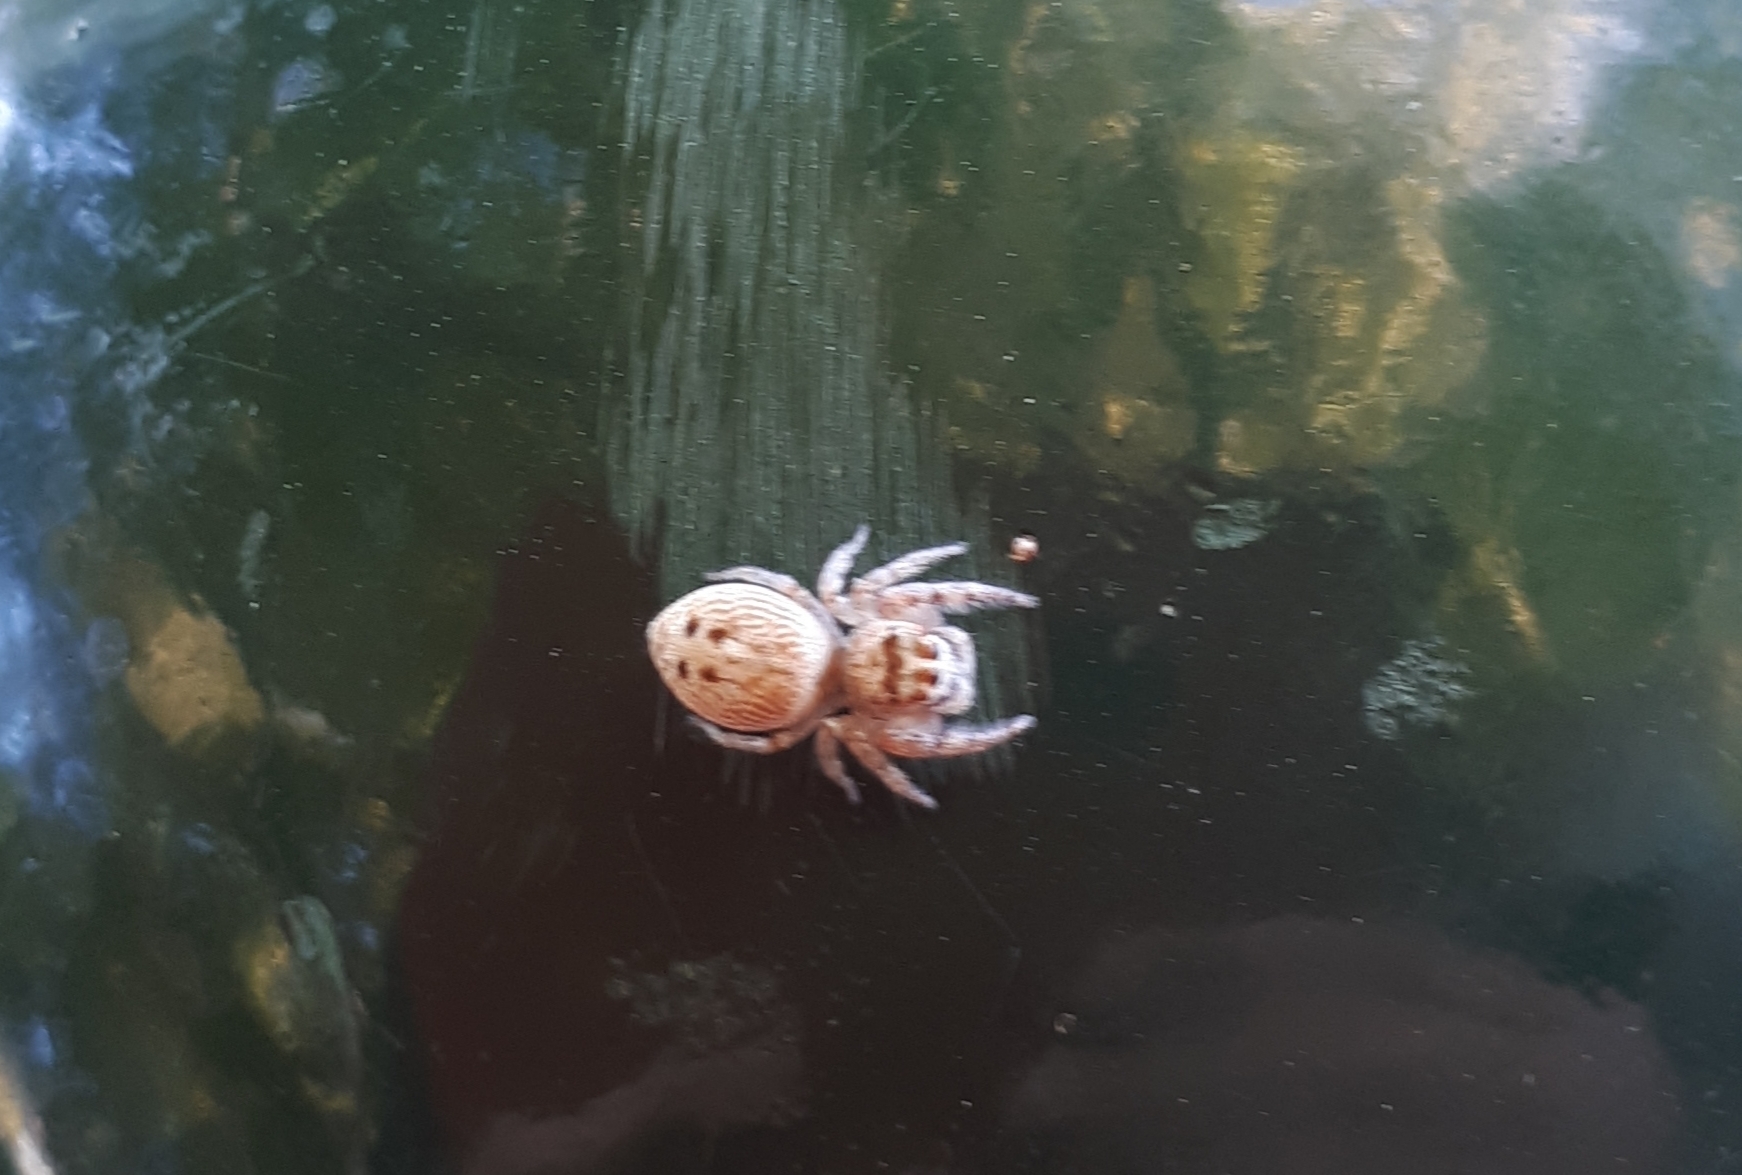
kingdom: Animalia
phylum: Arthropoda
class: Arachnida
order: Araneae
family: Salticidae
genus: Opisthoncus
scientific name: Opisthoncus polyphemus
